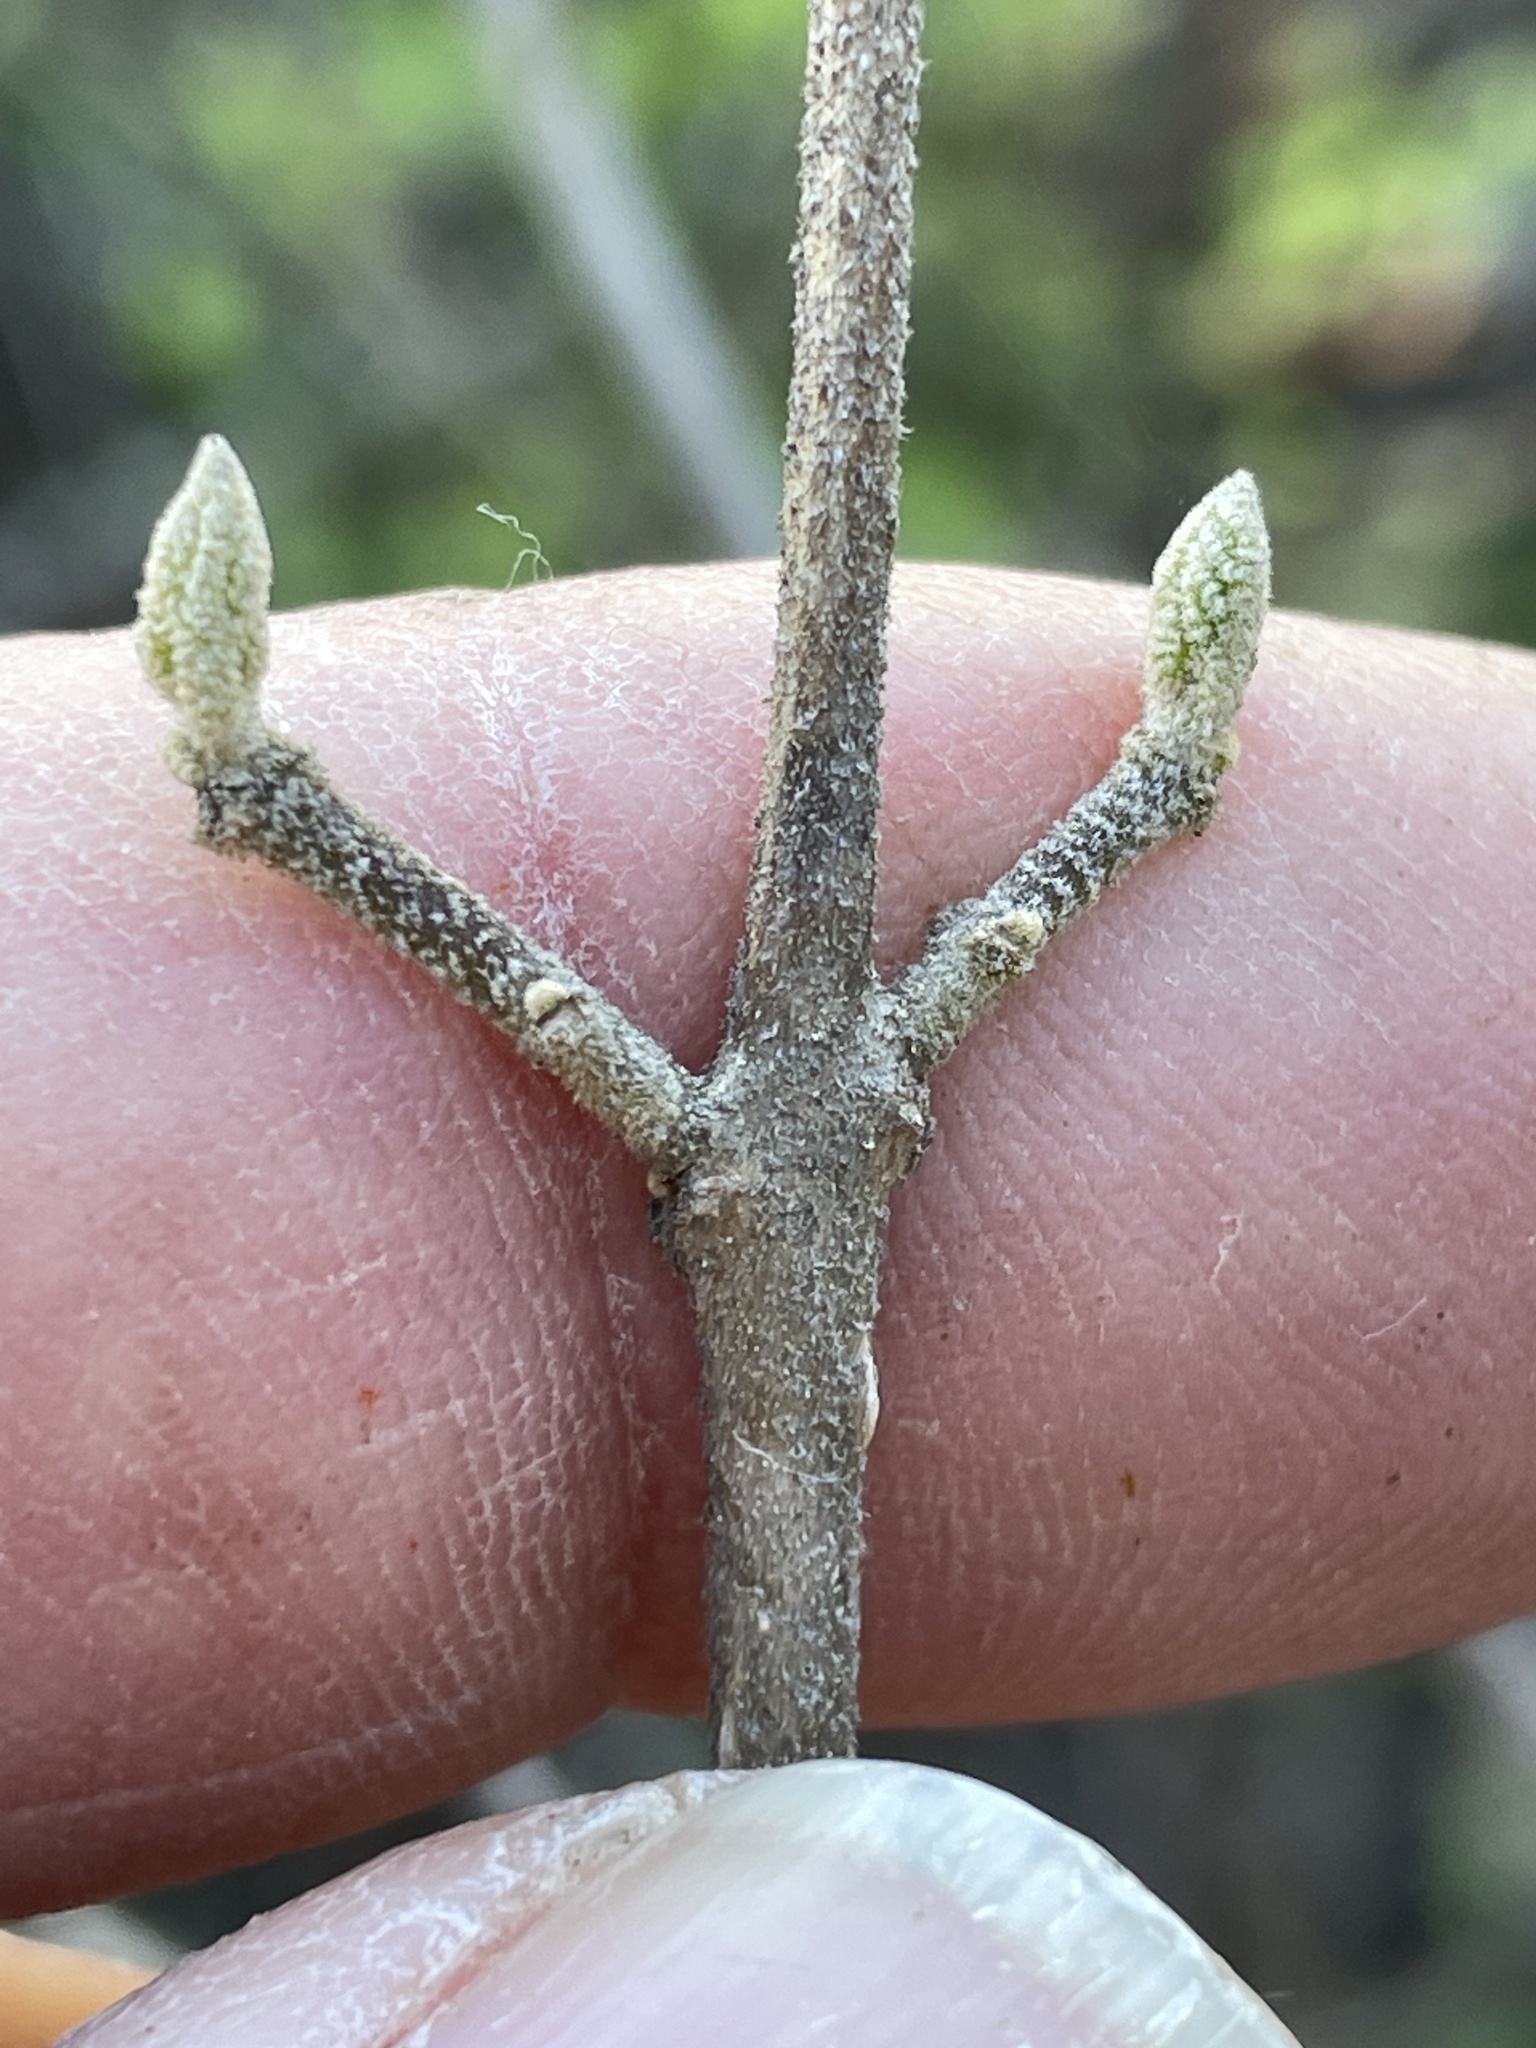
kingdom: Plantae
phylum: Tracheophyta
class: Magnoliopsida
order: Lamiales
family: Lamiaceae
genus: Callicarpa
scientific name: Callicarpa americana
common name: American beautyberry
